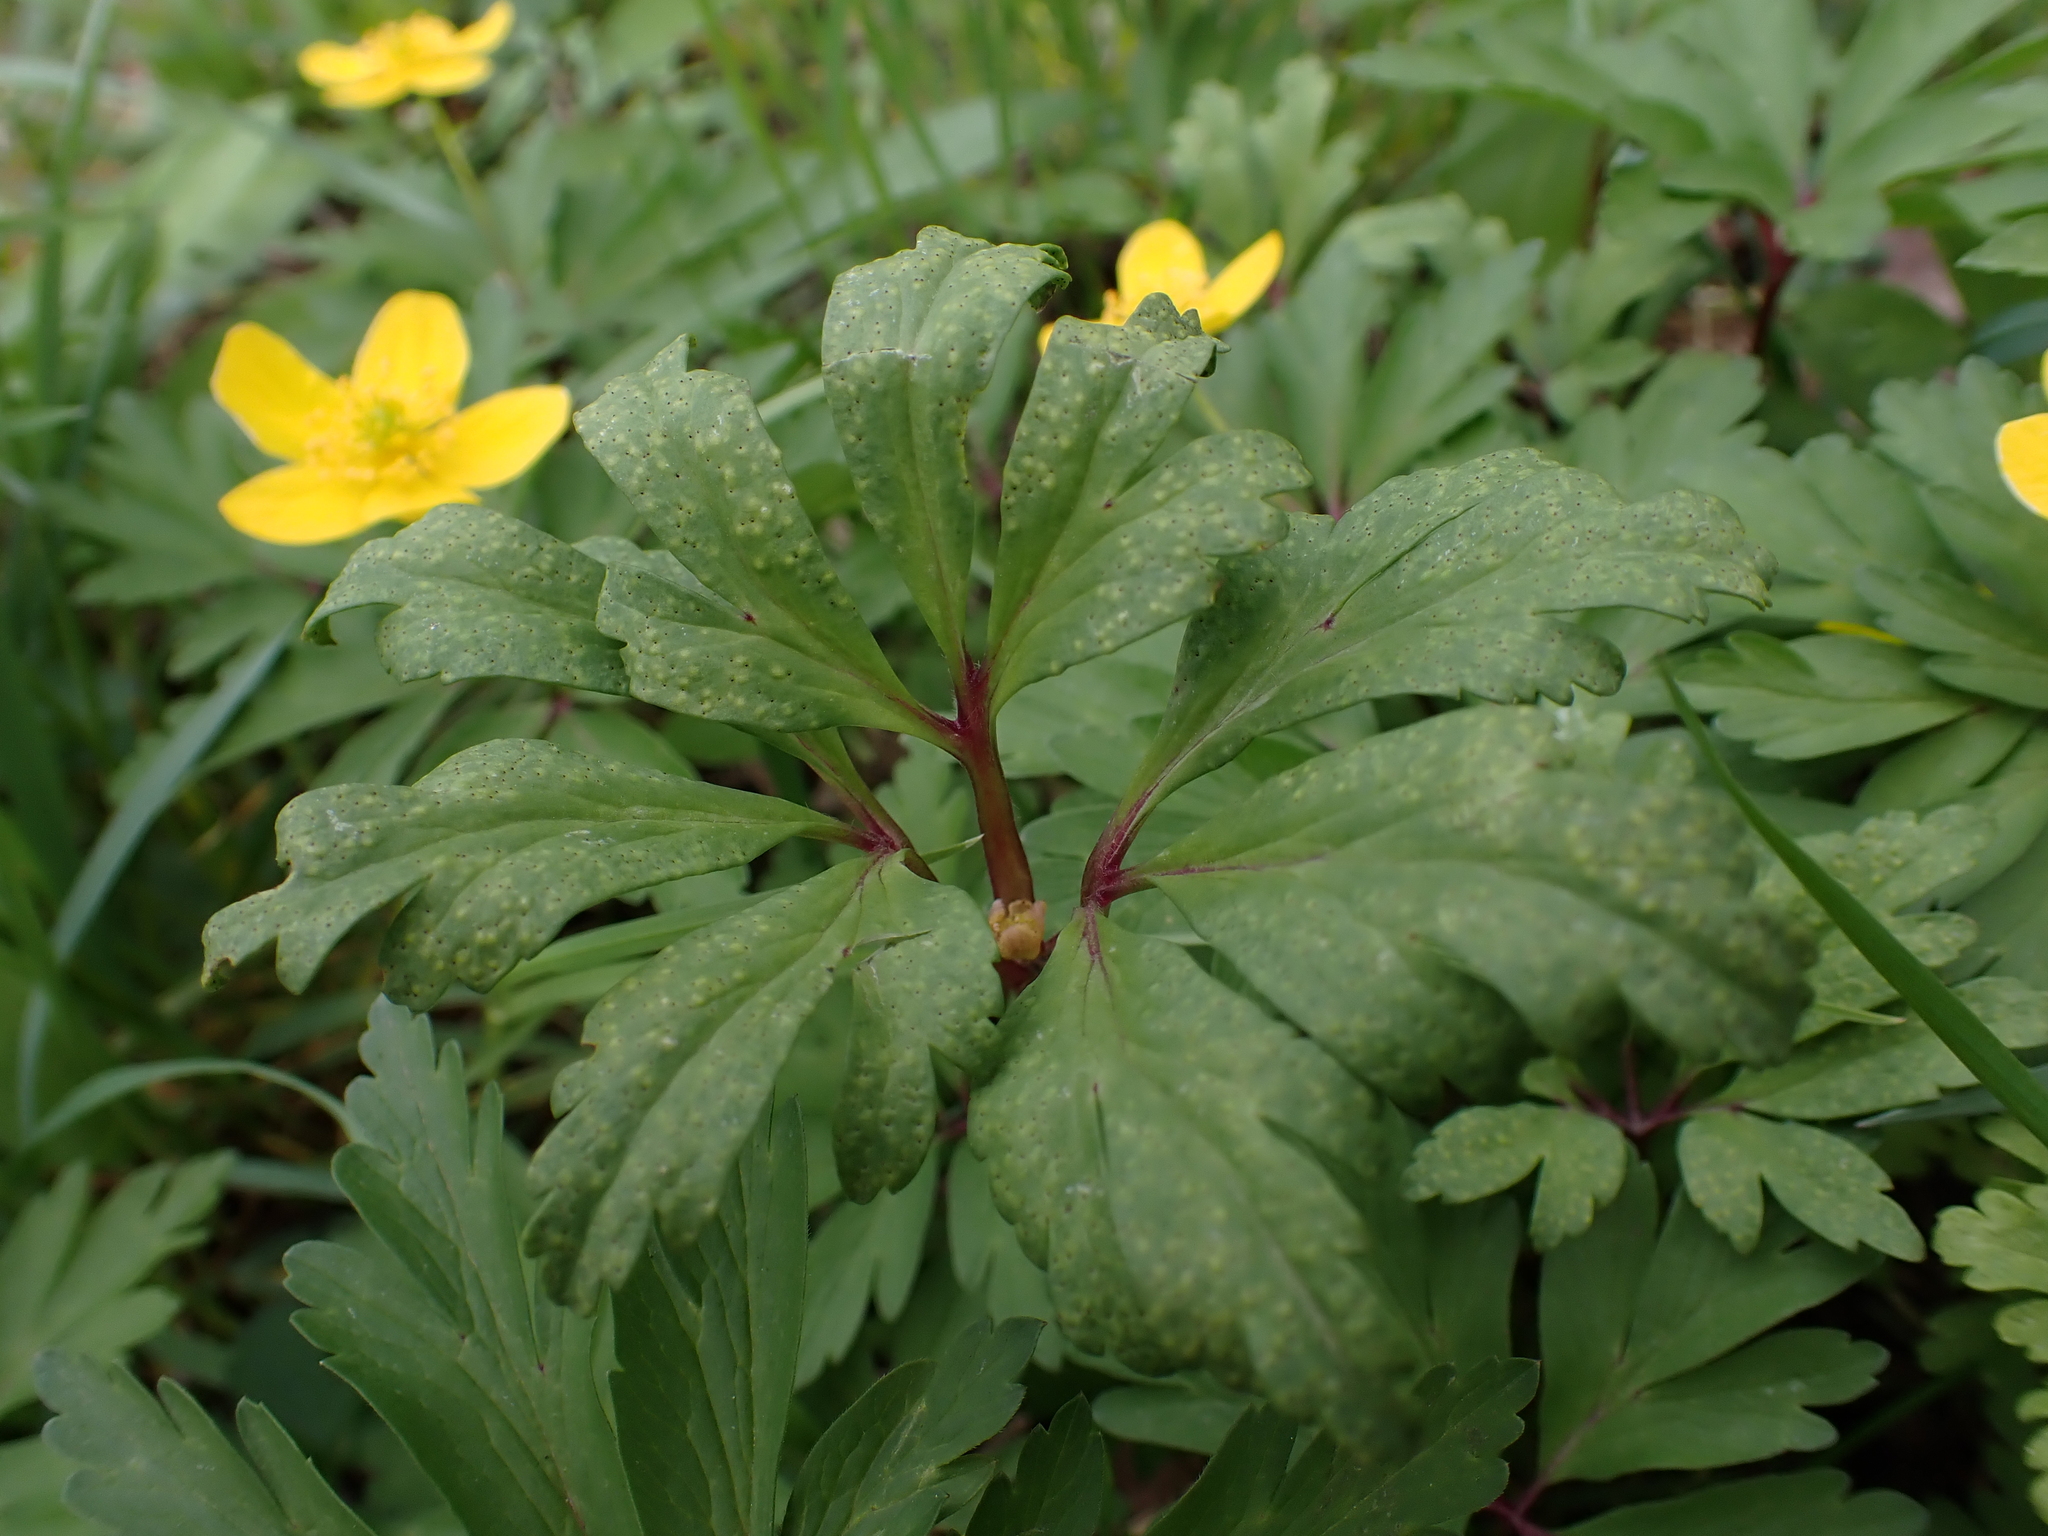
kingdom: Fungi
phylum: Basidiomycota
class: Pucciniomycetes
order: Pucciniales
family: Tranzscheliaceae
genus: Tranzschelia
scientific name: Tranzschelia pruni-spinosae
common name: Blackthorn rust
